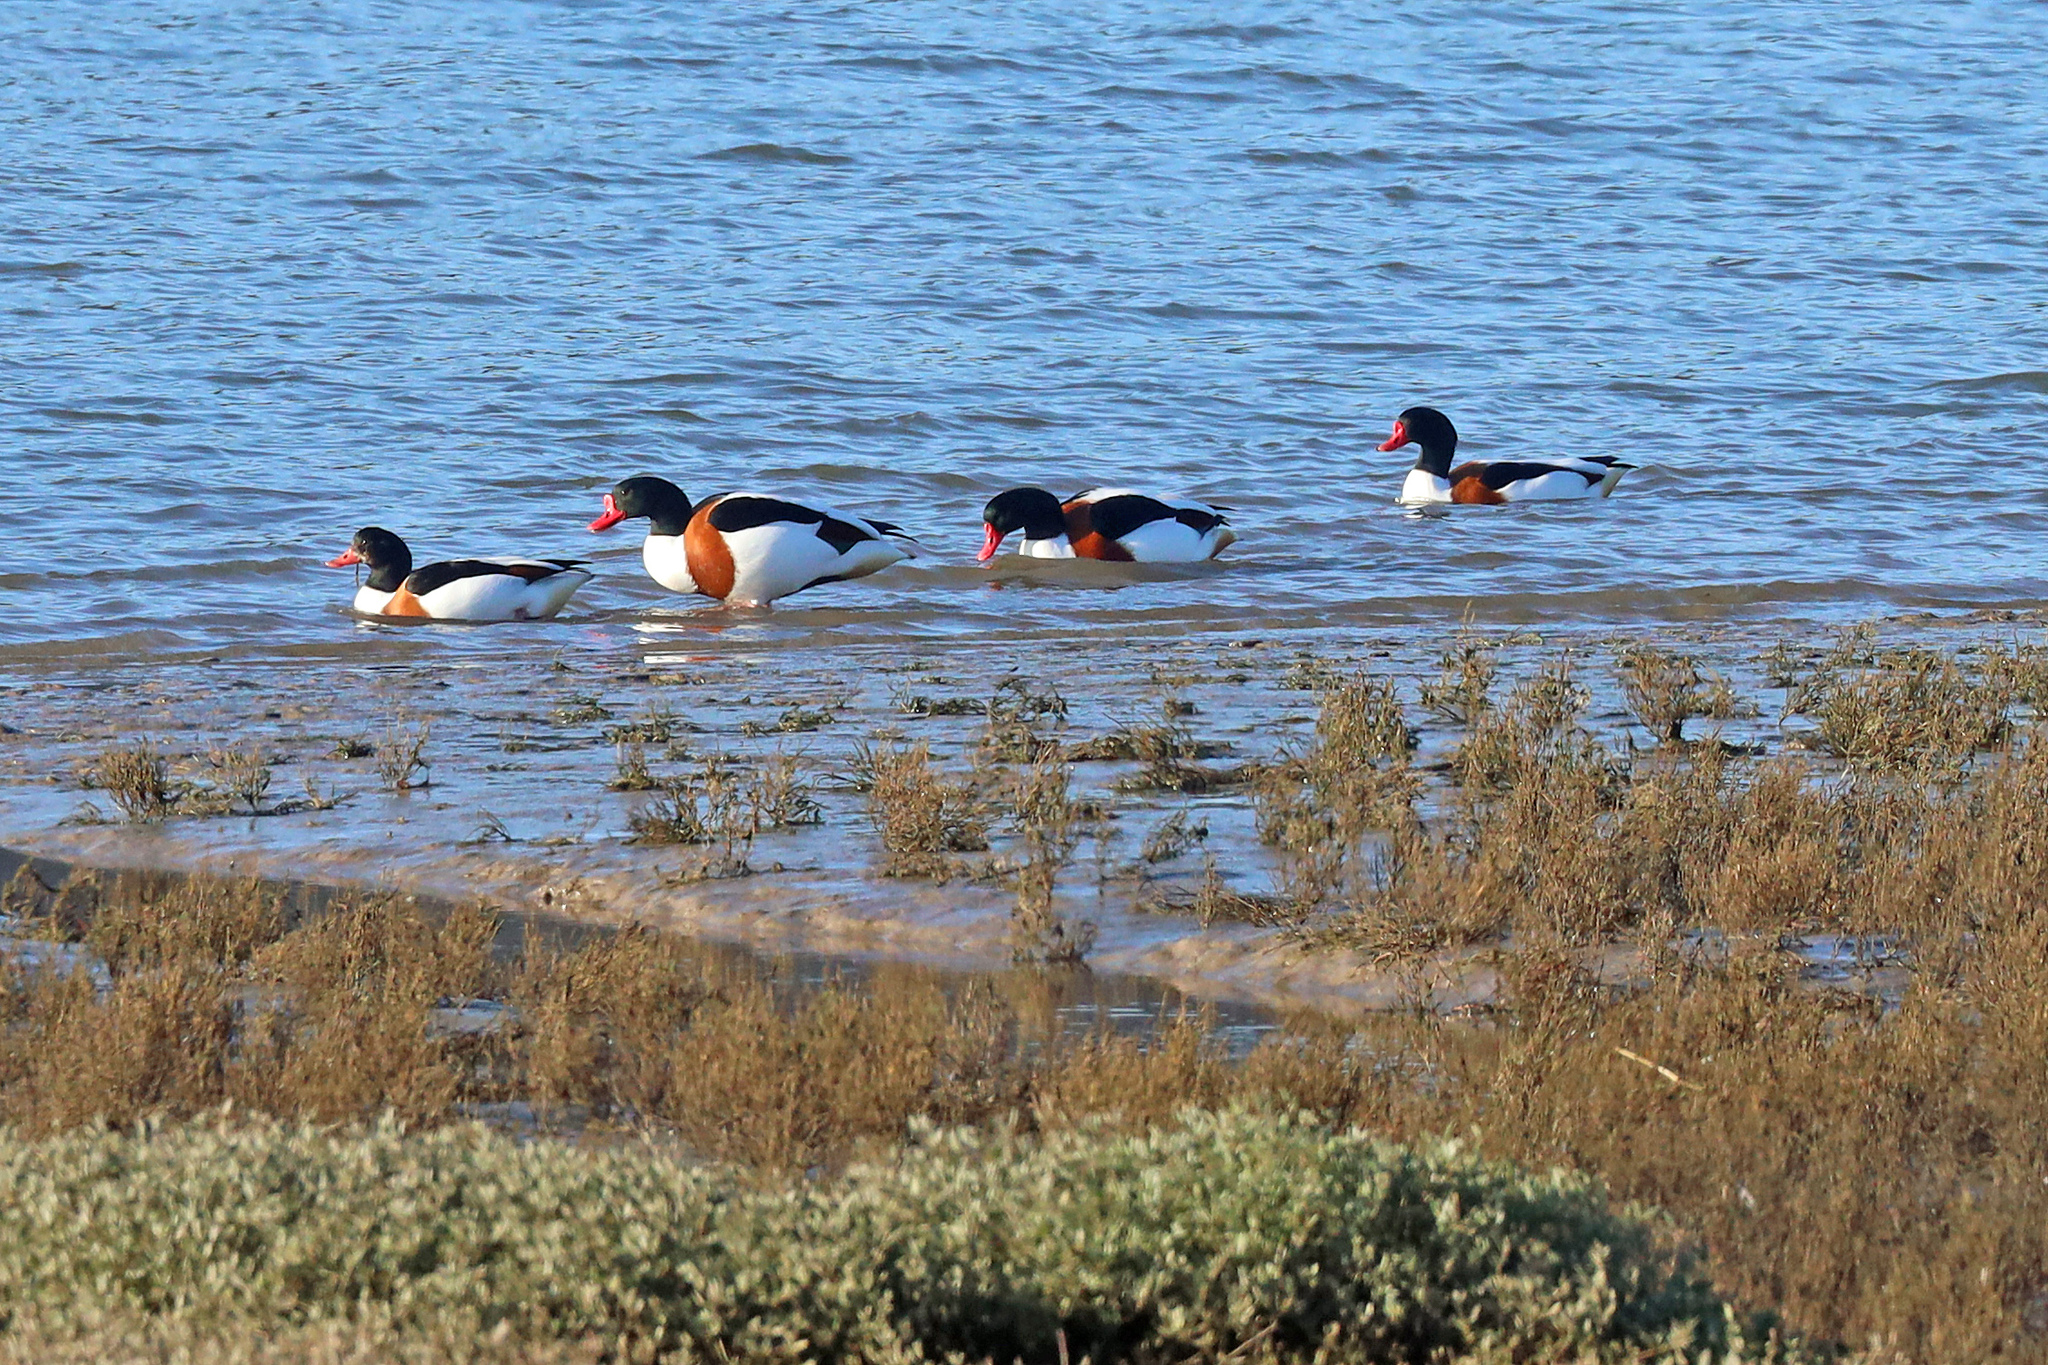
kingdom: Animalia
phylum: Chordata
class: Aves
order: Anseriformes
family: Anatidae
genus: Tadorna
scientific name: Tadorna tadorna
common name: Common shelduck
